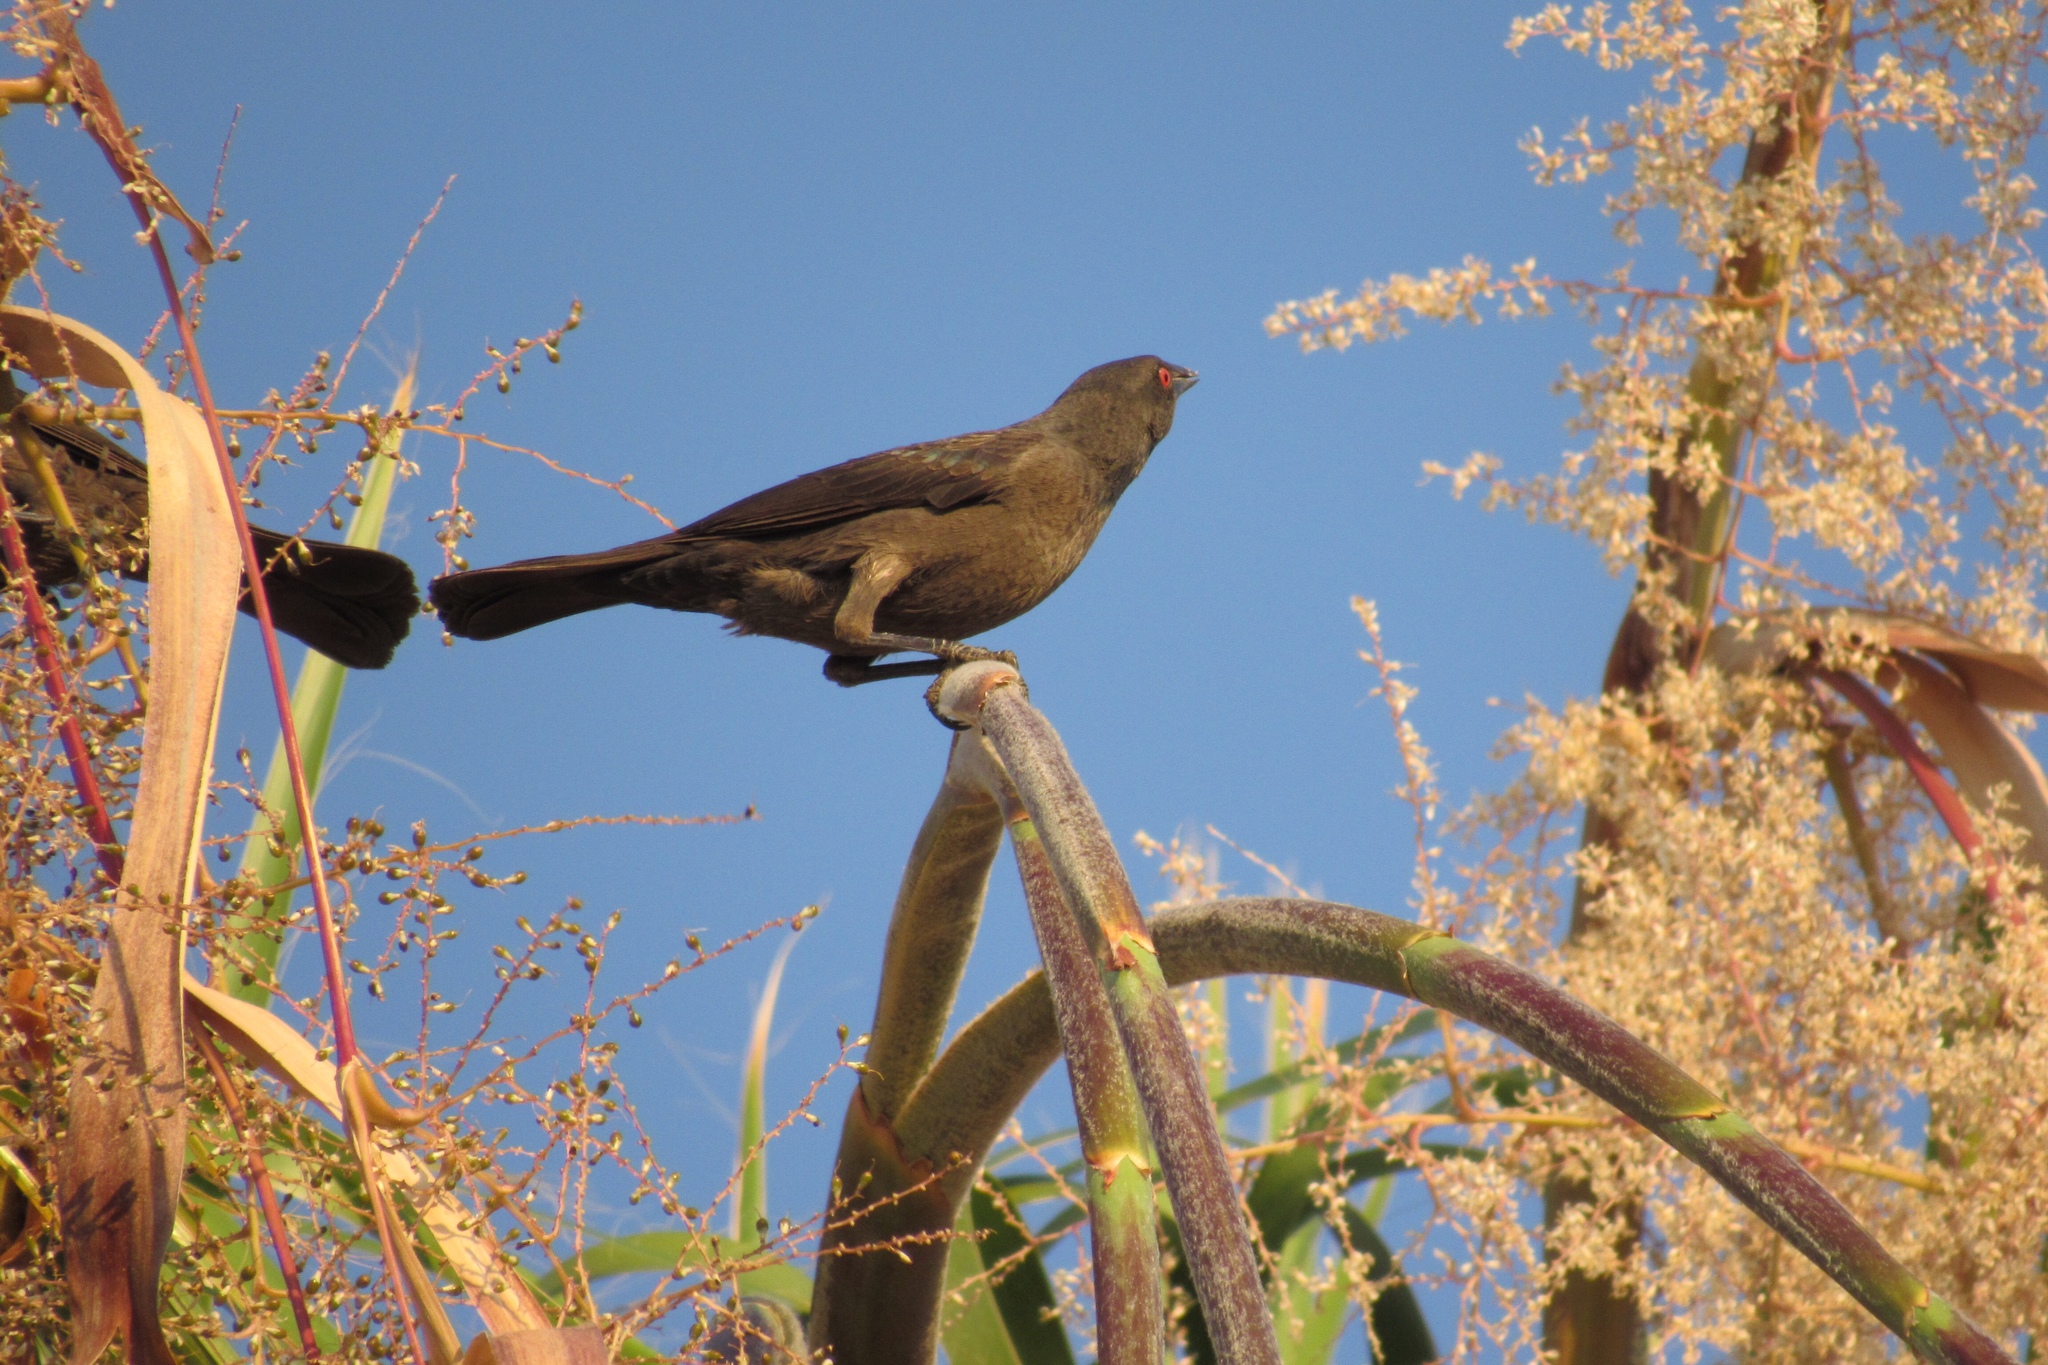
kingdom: Animalia
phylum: Chordata
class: Aves
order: Passeriformes
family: Icteridae
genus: Molothrus
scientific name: Molothrus aeneus
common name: Bronzed cowbird
